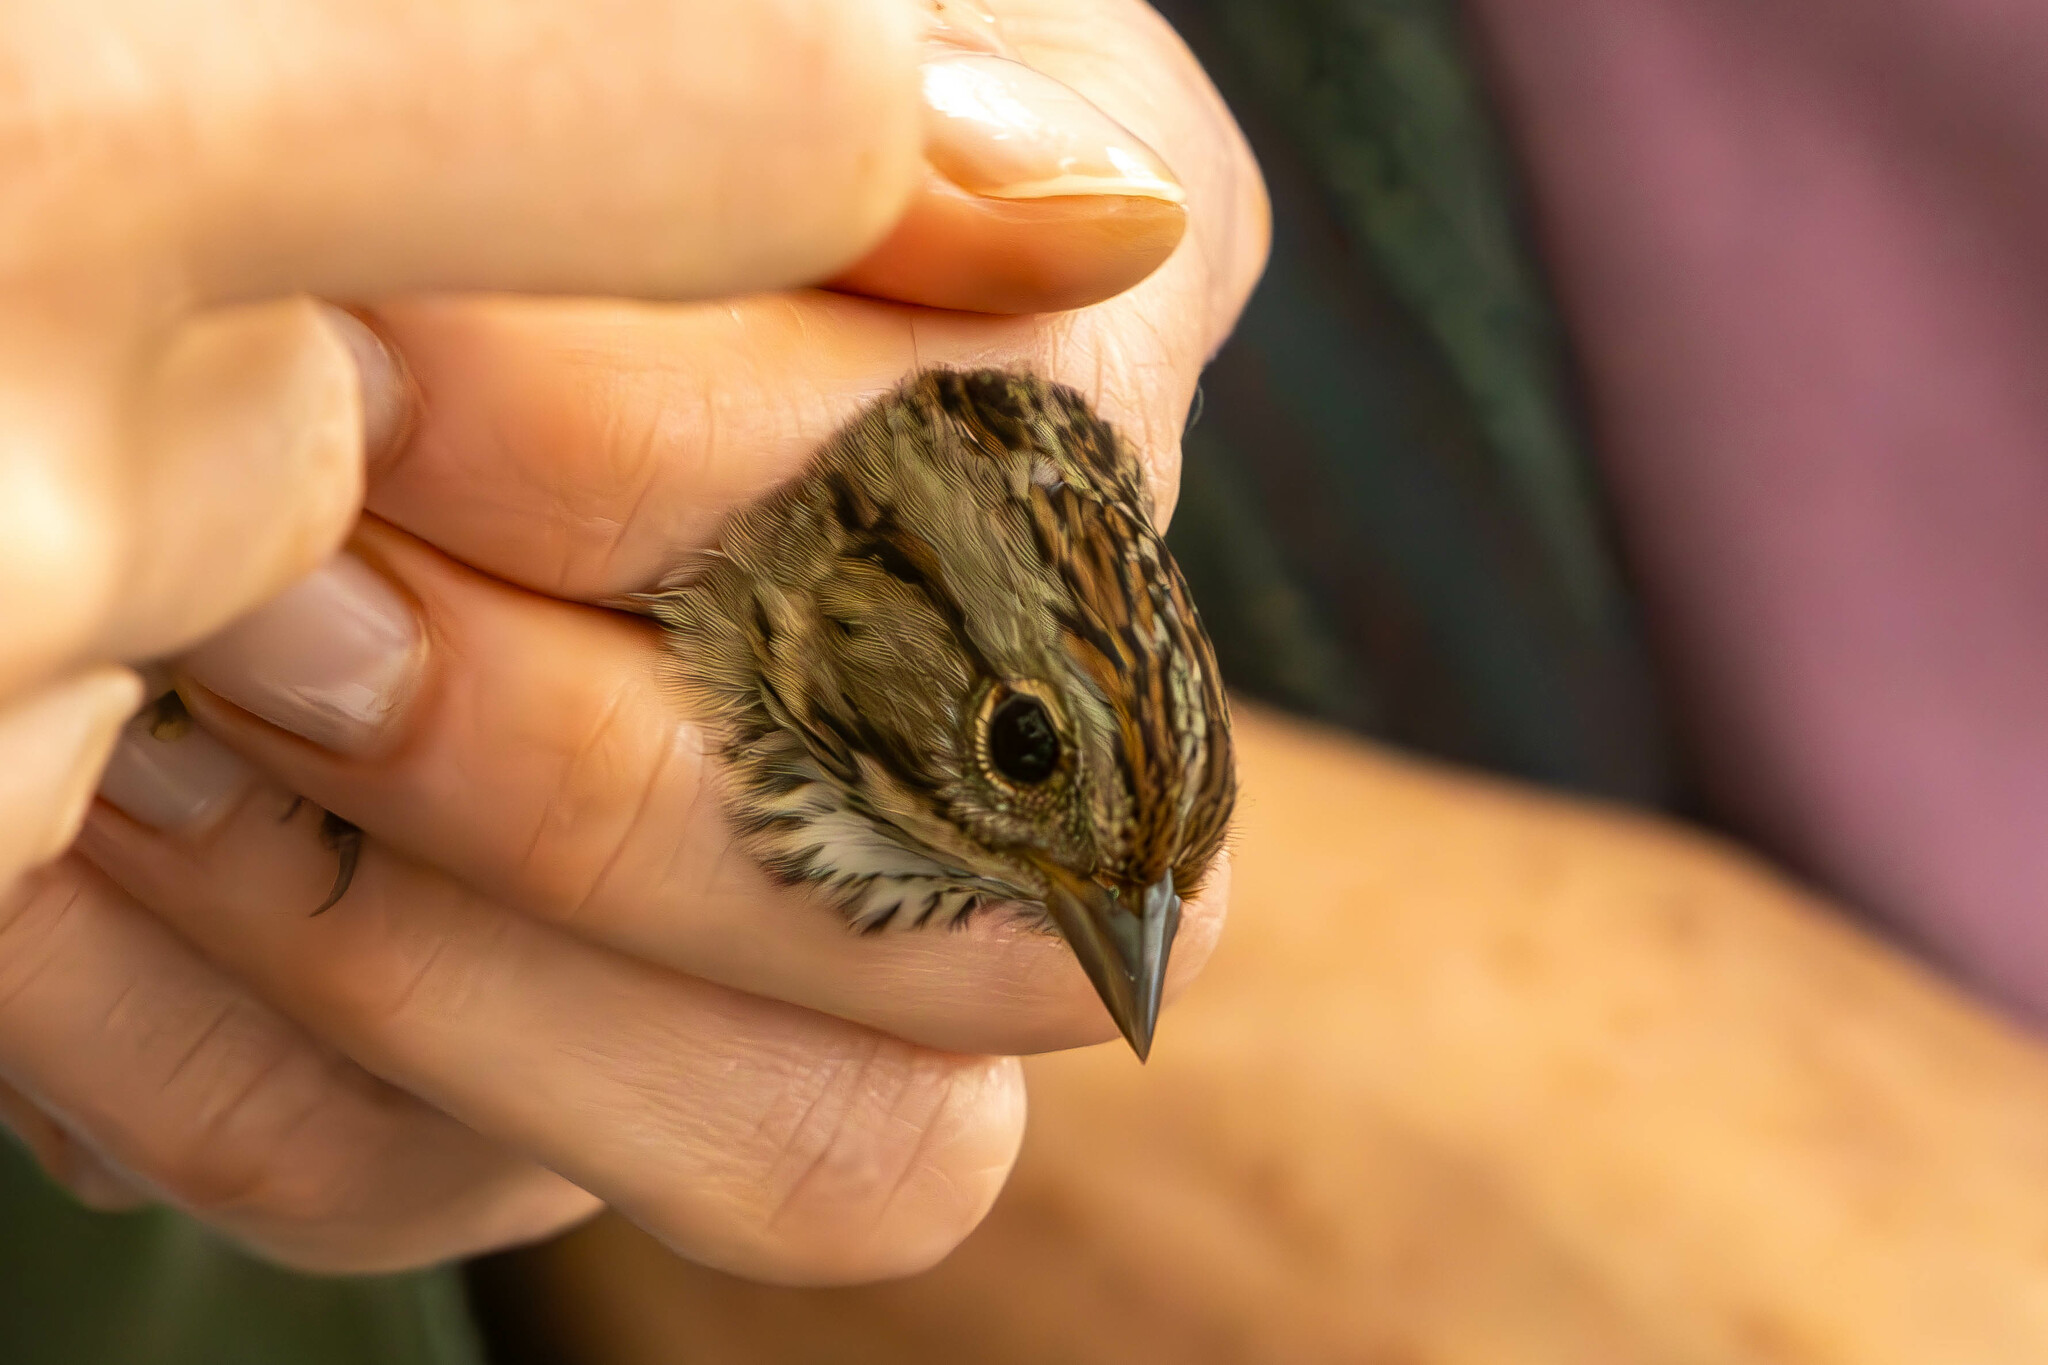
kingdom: Animalia
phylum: Chordata
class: Aves
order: Passeriformes
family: Passerellidae
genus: Melospiza
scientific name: Melospiza lincolnii
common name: Lincoln's sparrow
